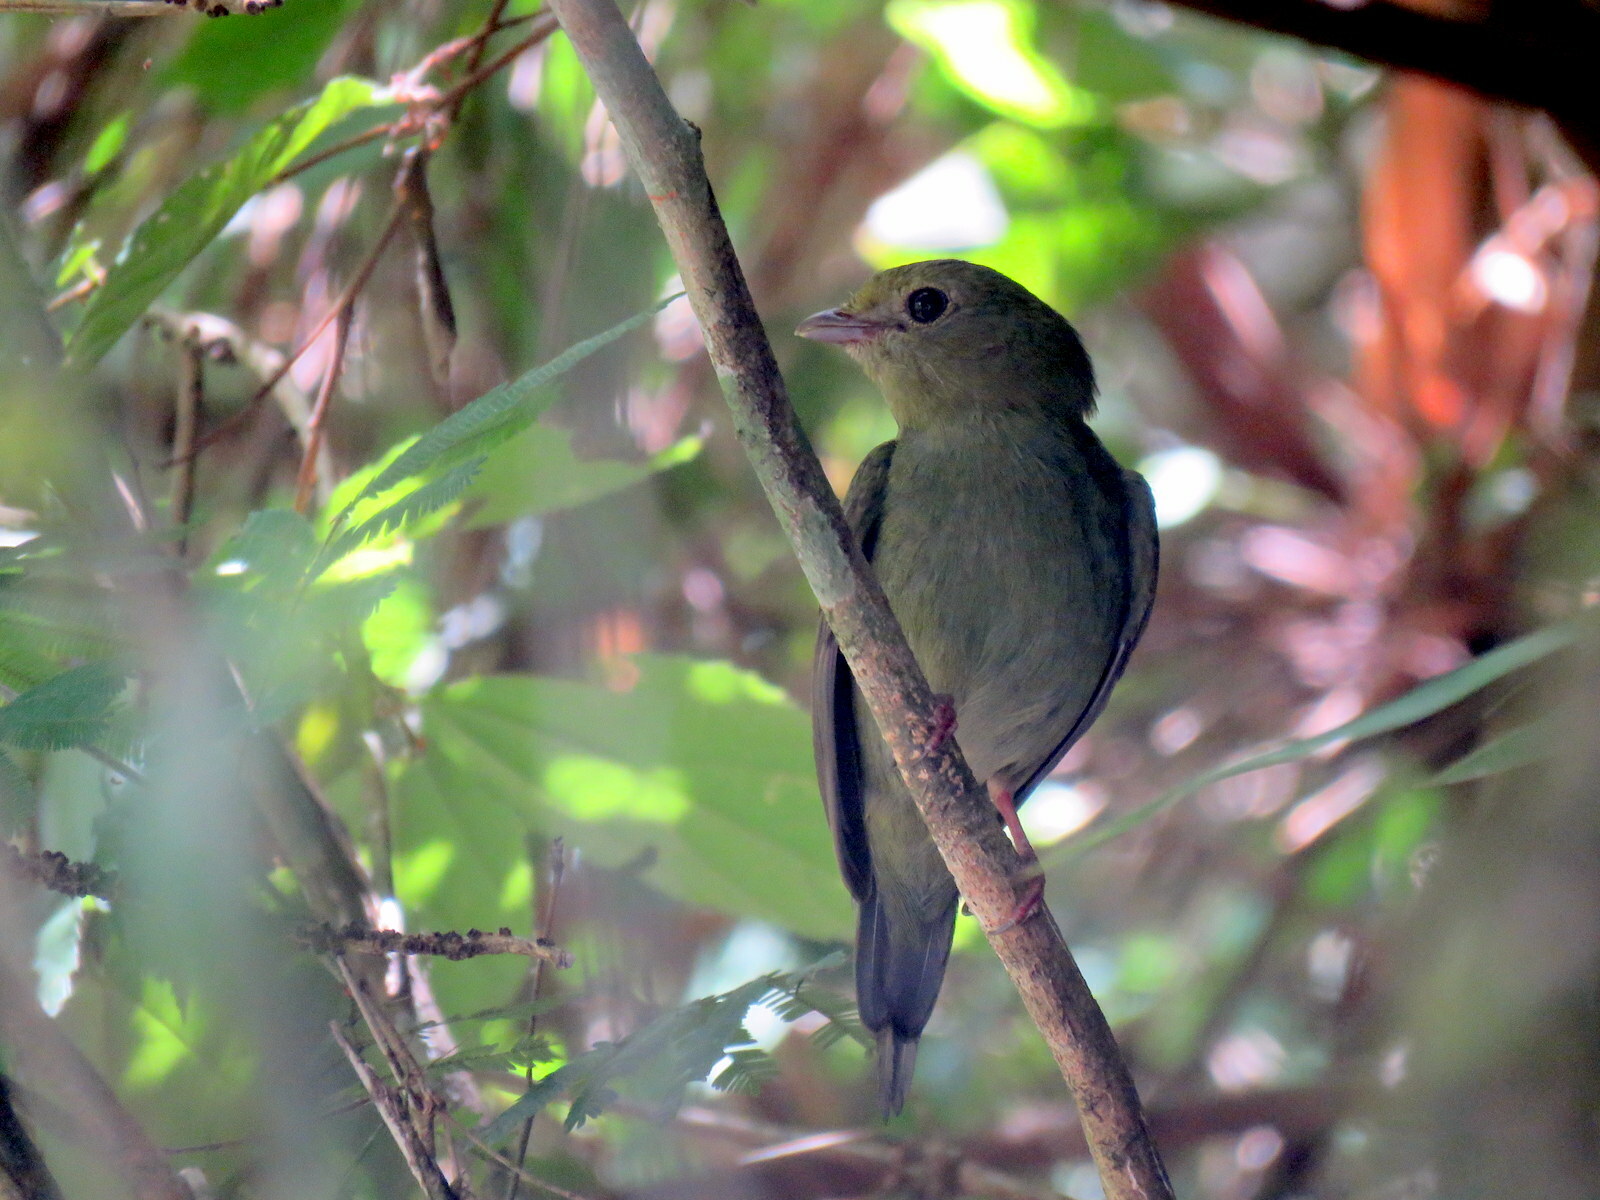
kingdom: Animalia
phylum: Chordata
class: Aves
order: Passeriformes
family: Pipridae
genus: Chiroxiphia
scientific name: Chiroxiphia caudata
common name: Blue manakin
